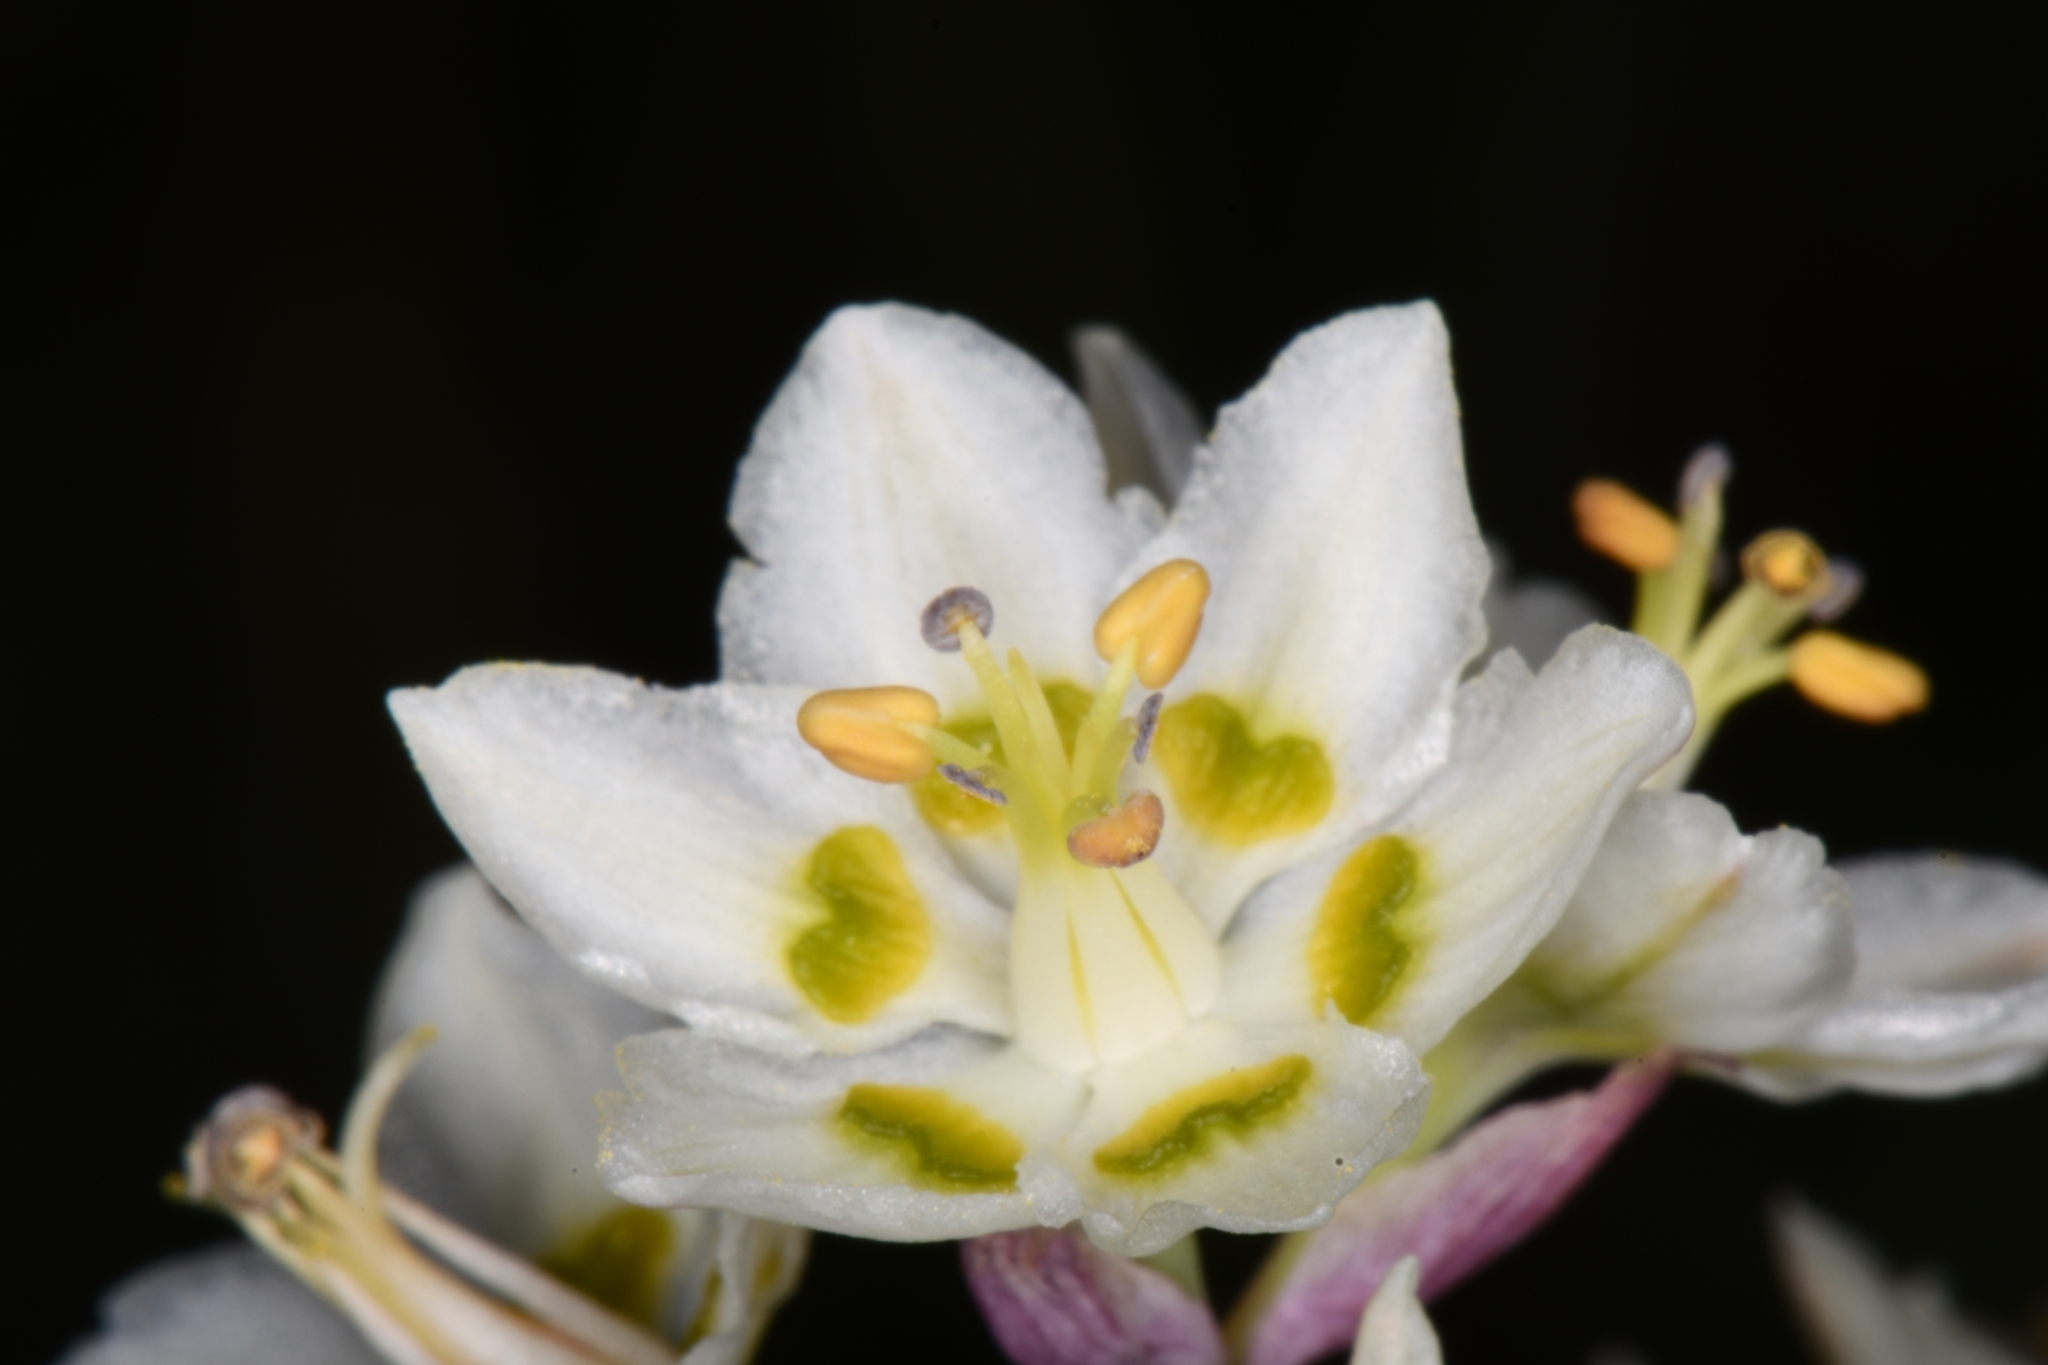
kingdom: Plantae
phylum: Tracheophyta
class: Liliopsida
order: Liliales
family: Melanthiaceae
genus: Anticlea
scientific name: Anticlea elegans
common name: Mountain death camas
